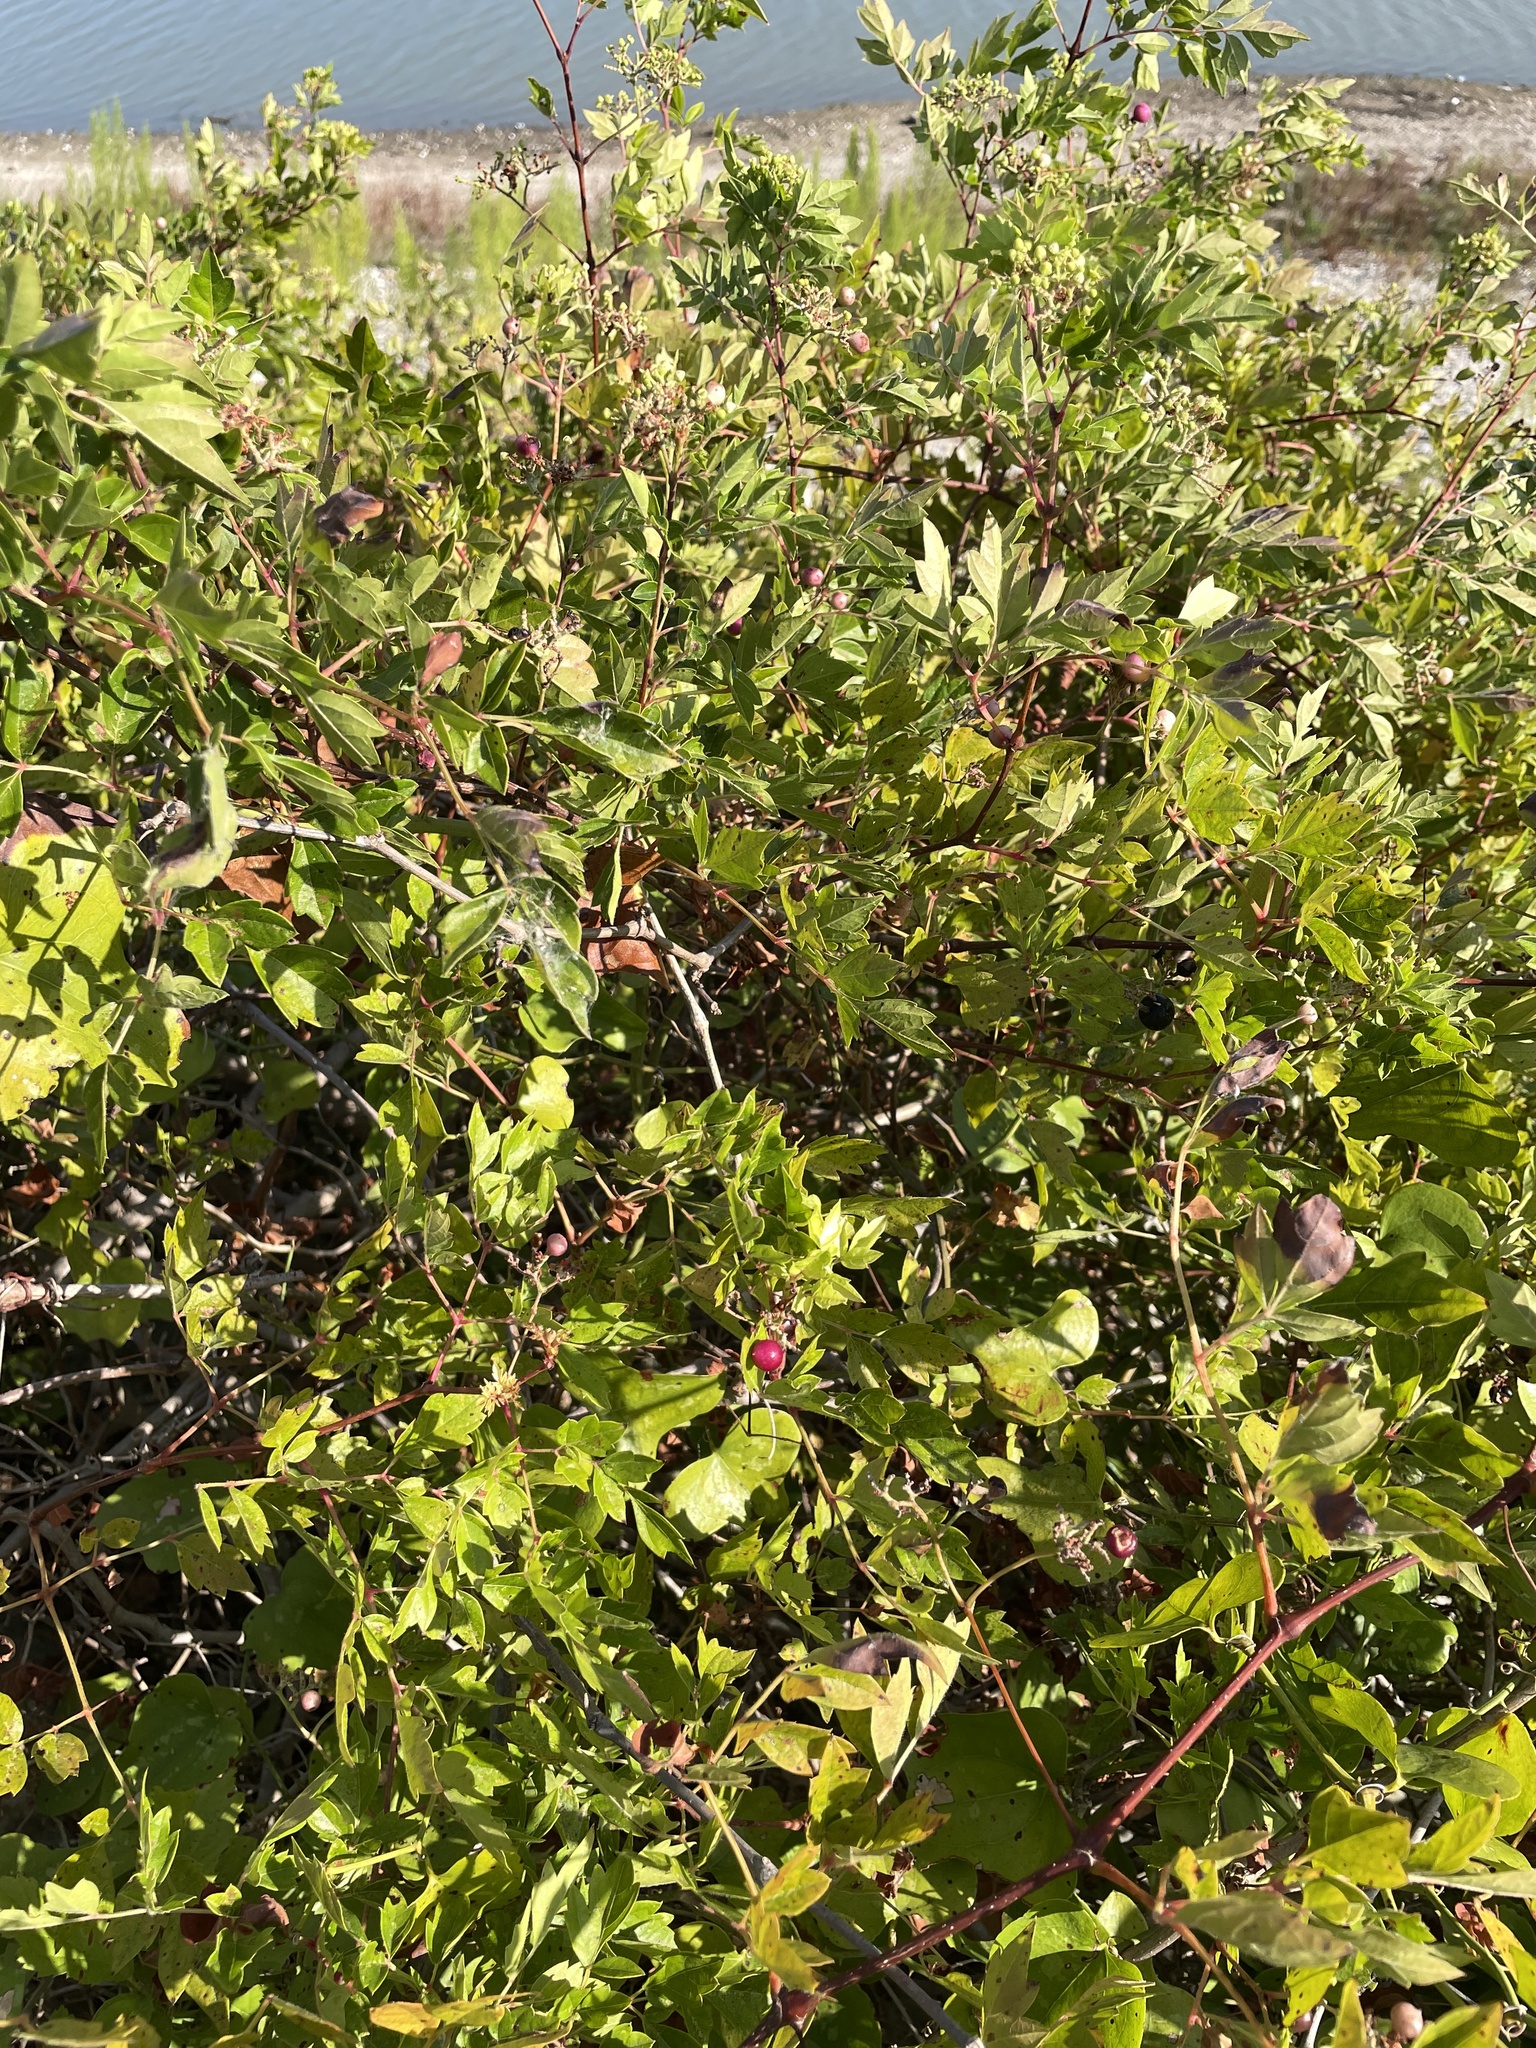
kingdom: Plantae
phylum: Tracheophyta
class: Magnoliopsida
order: Vitales
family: Vitaceae
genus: Nekemias
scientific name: Nekemias arborea
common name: Peppervine
